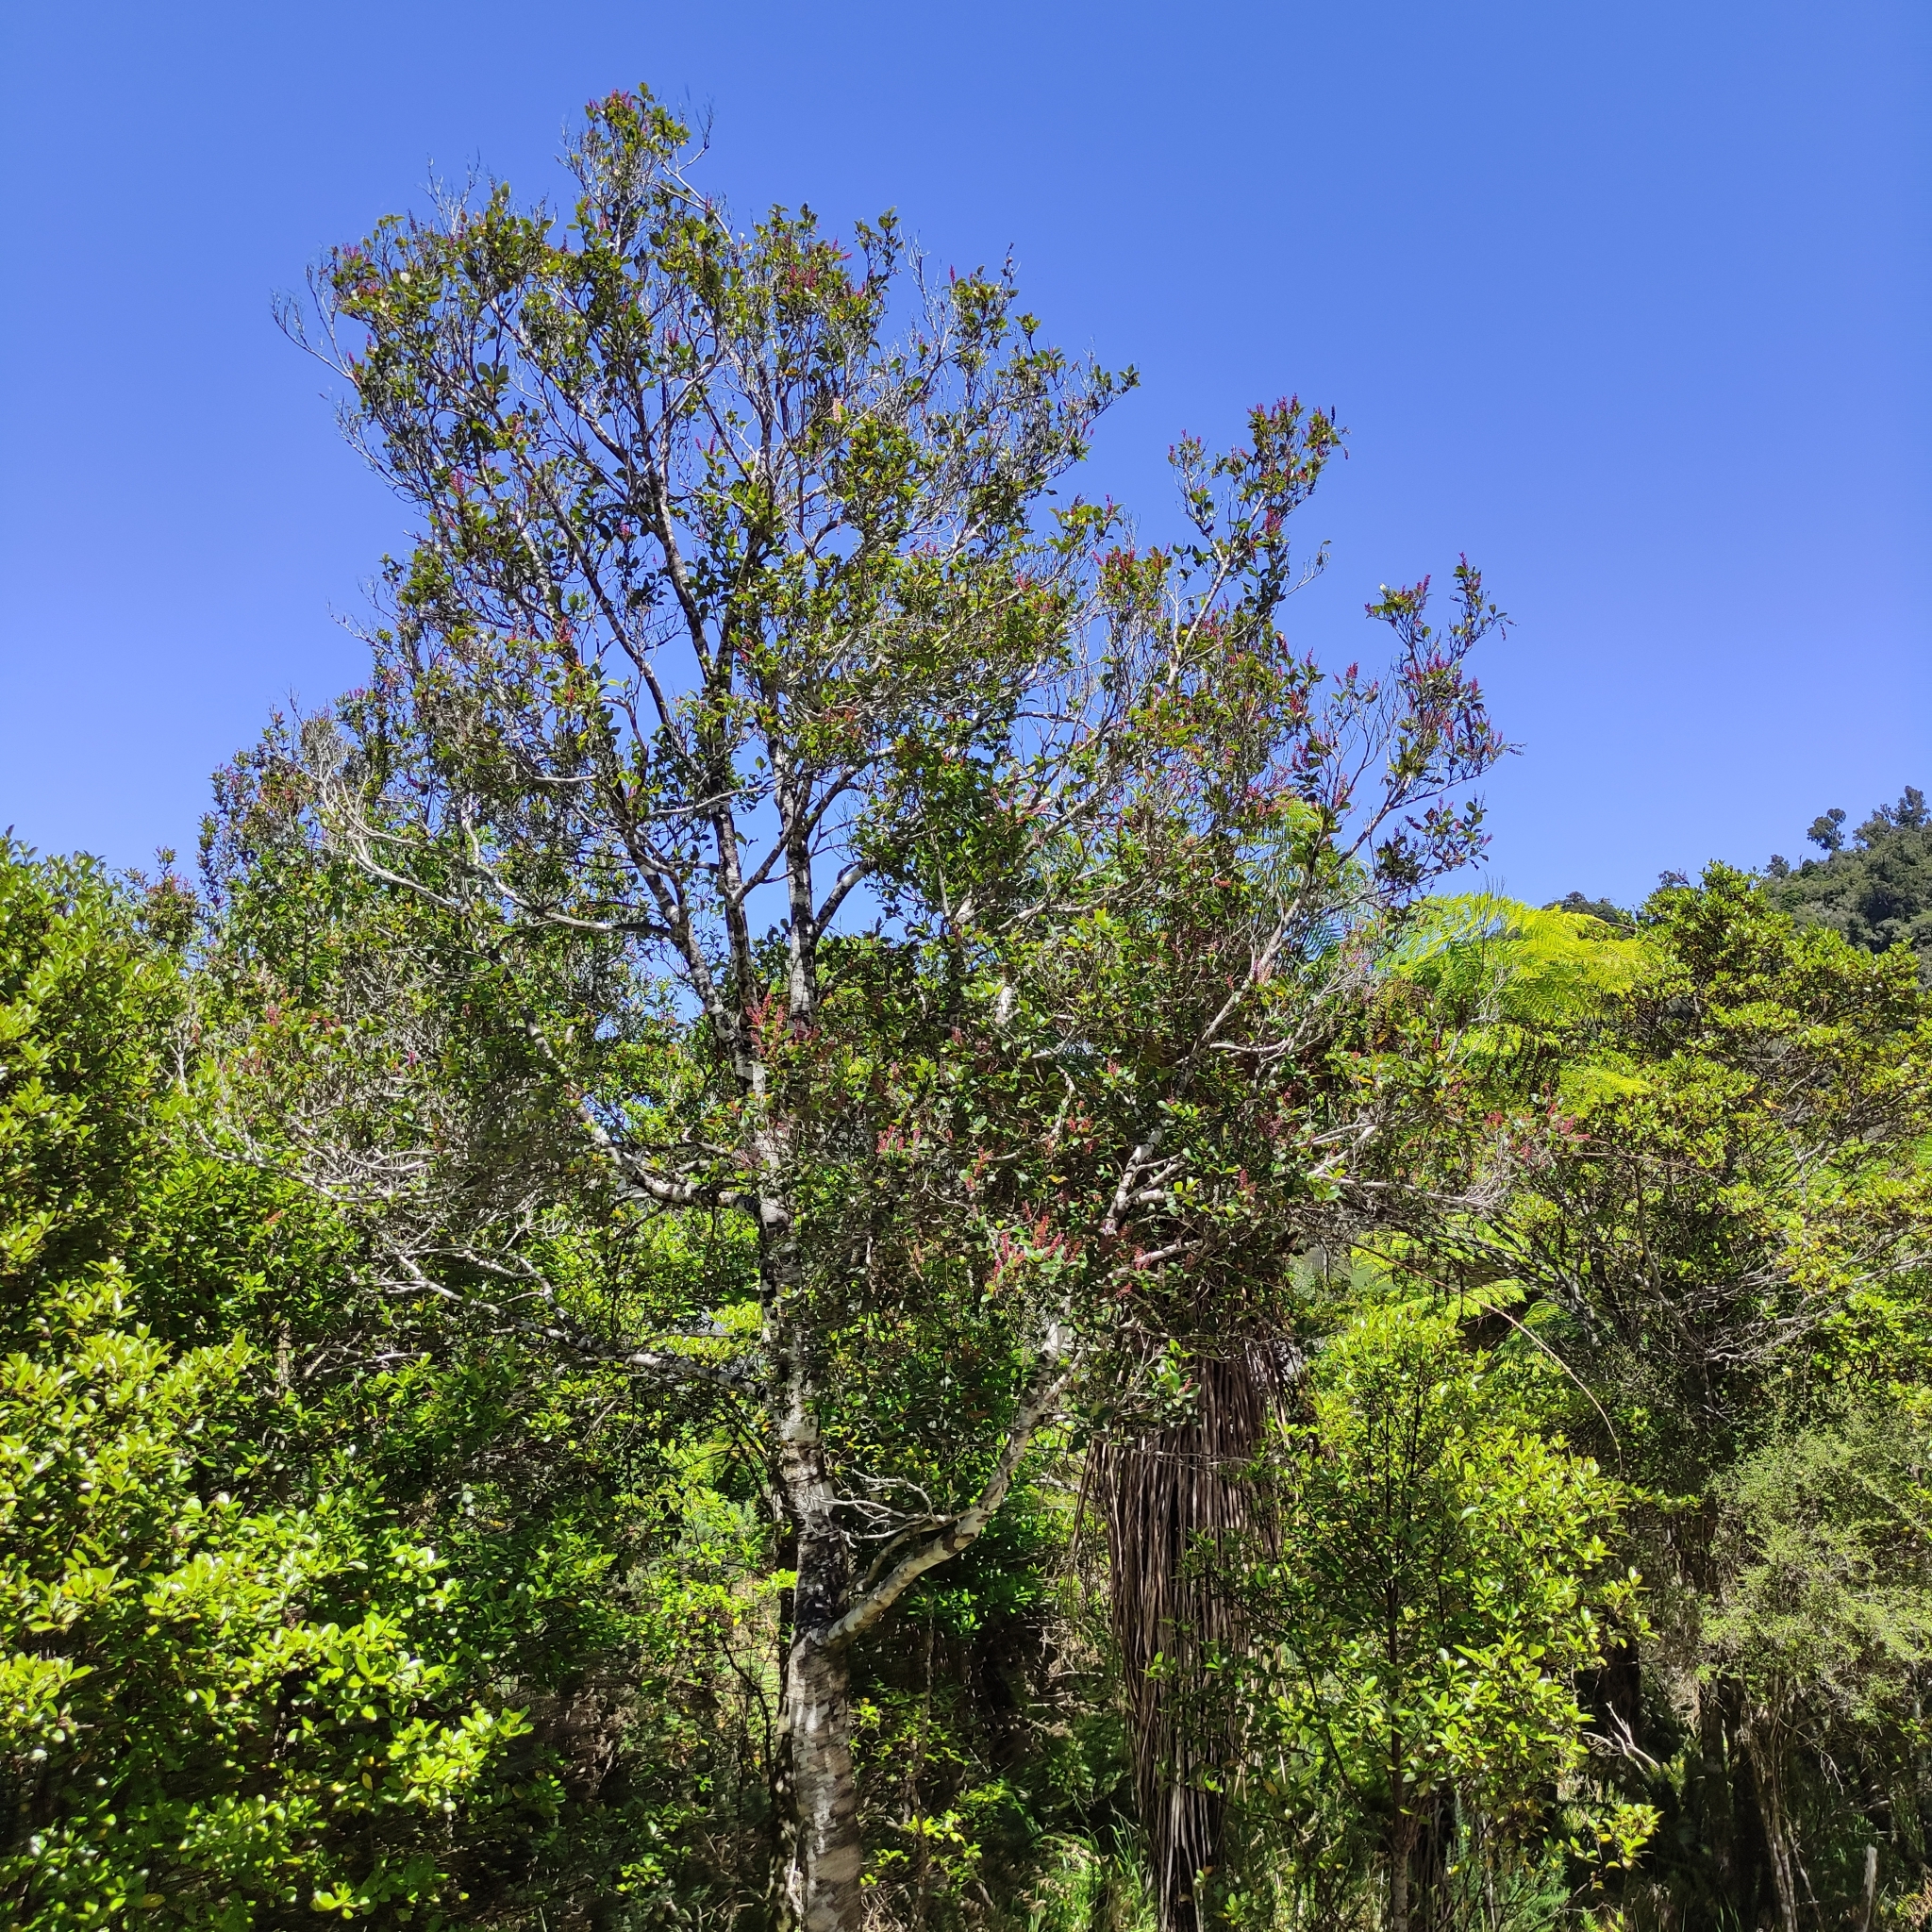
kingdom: Plantae
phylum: Tracheophyta
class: Magnoliopsida
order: Oxalidales
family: Cunoniaceae
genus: Pterophylla
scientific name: Pterophylla racemosa
